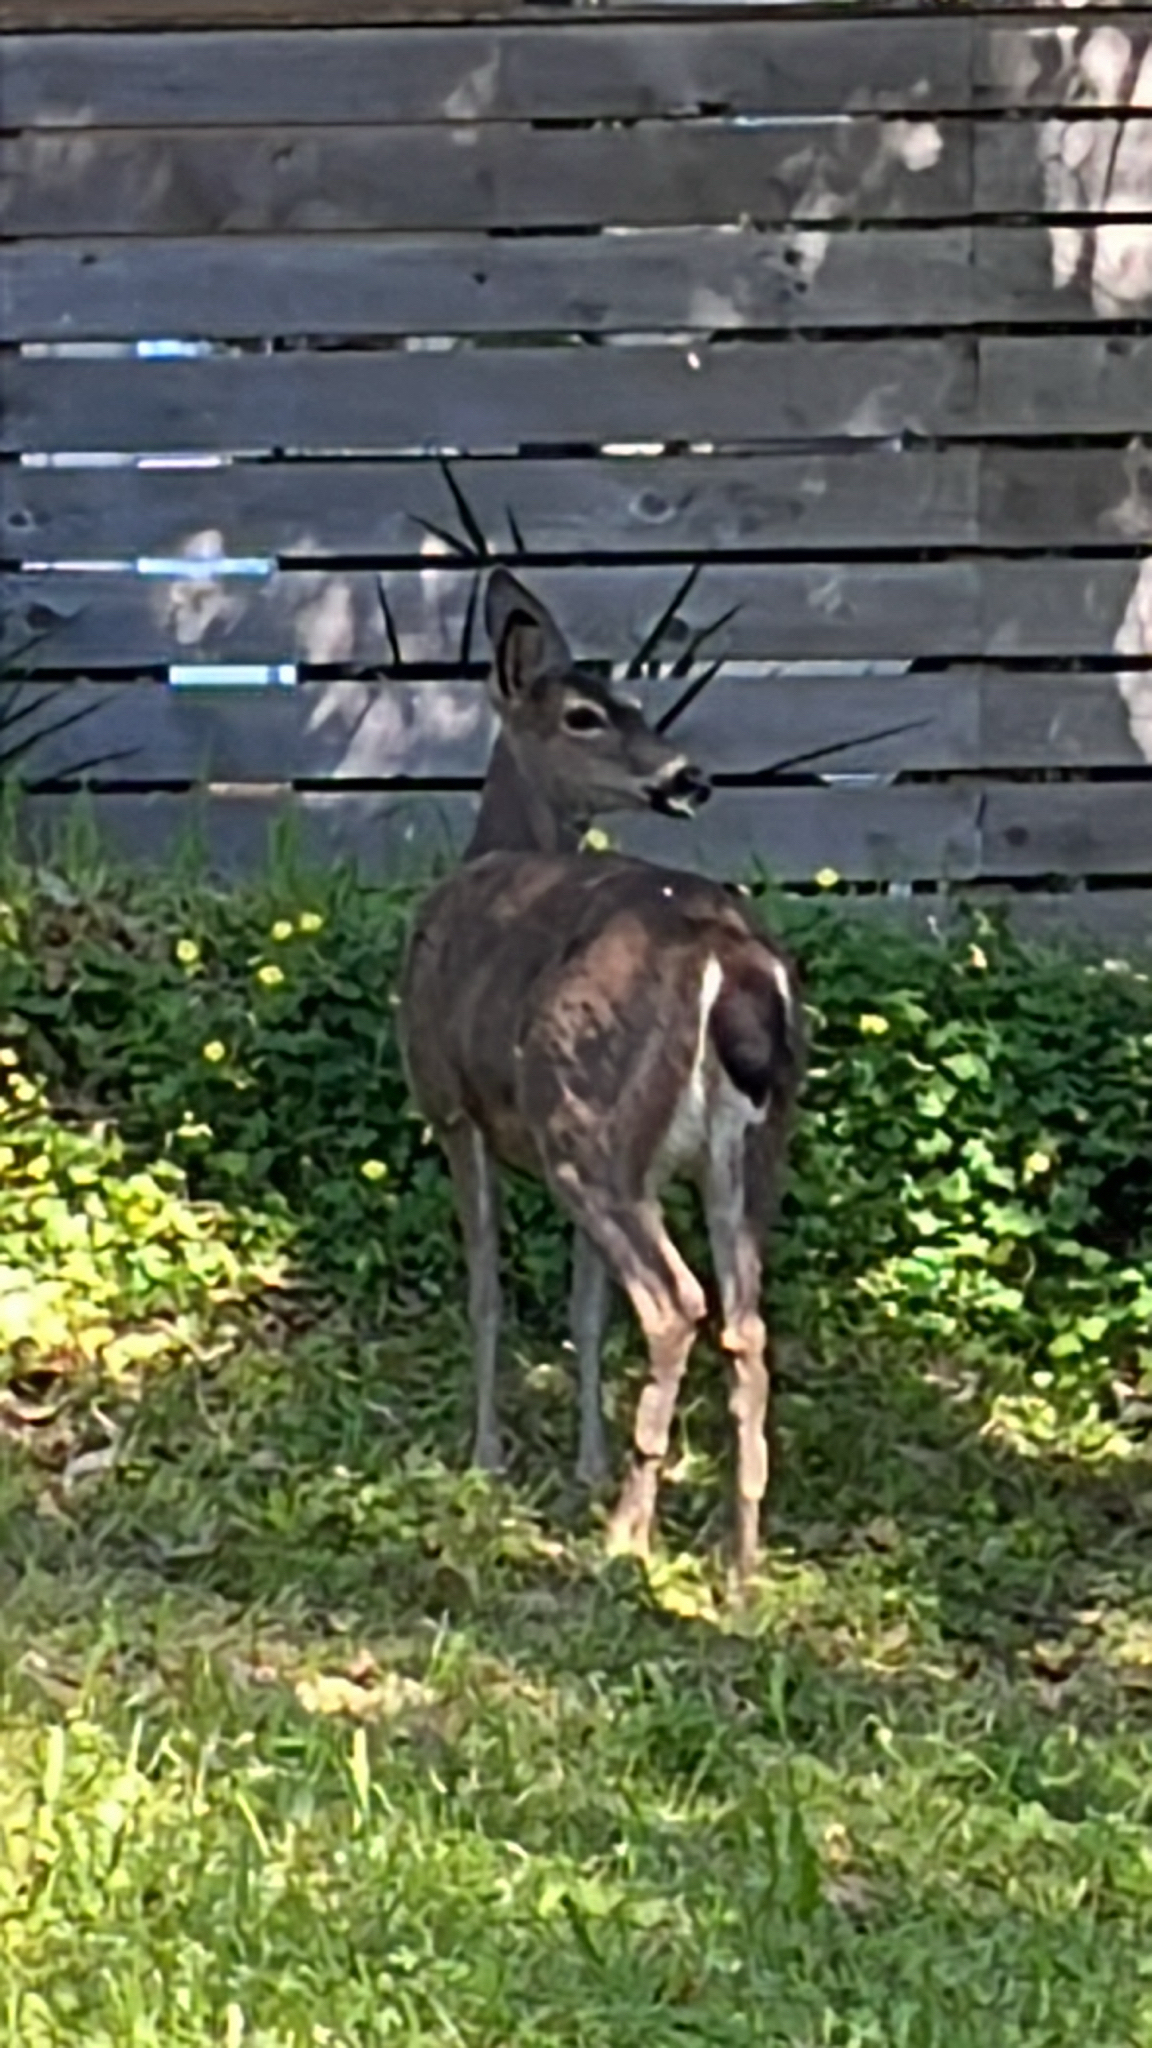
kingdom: Animalia
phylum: Chordata
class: Mammalia
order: Artiodactyla
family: Cervidae
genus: Odocoileus
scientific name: Odocoileus hemionus
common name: Mule deer
